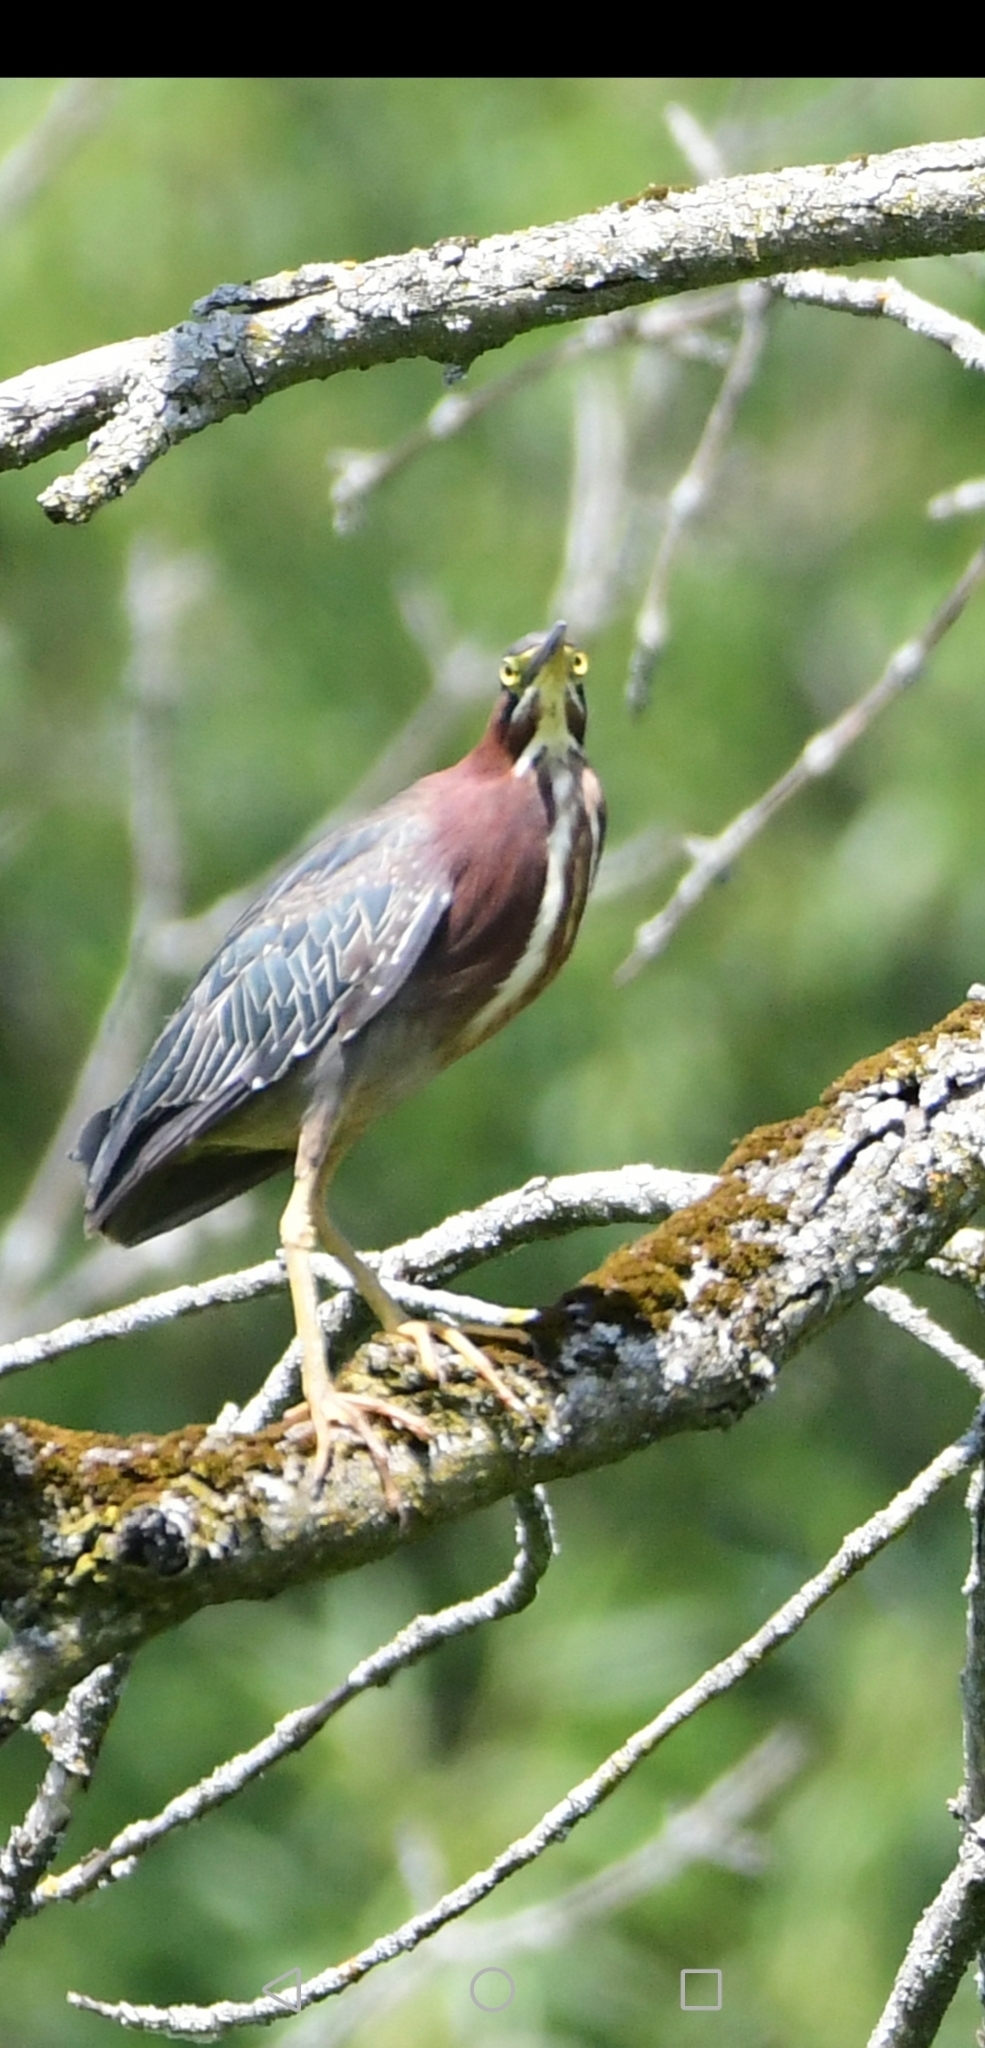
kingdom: Animalia
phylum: Chordata
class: Aves
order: Pelecaniformes
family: Ardeidae
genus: Butorides
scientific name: Butorides virescens
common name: Green heron
